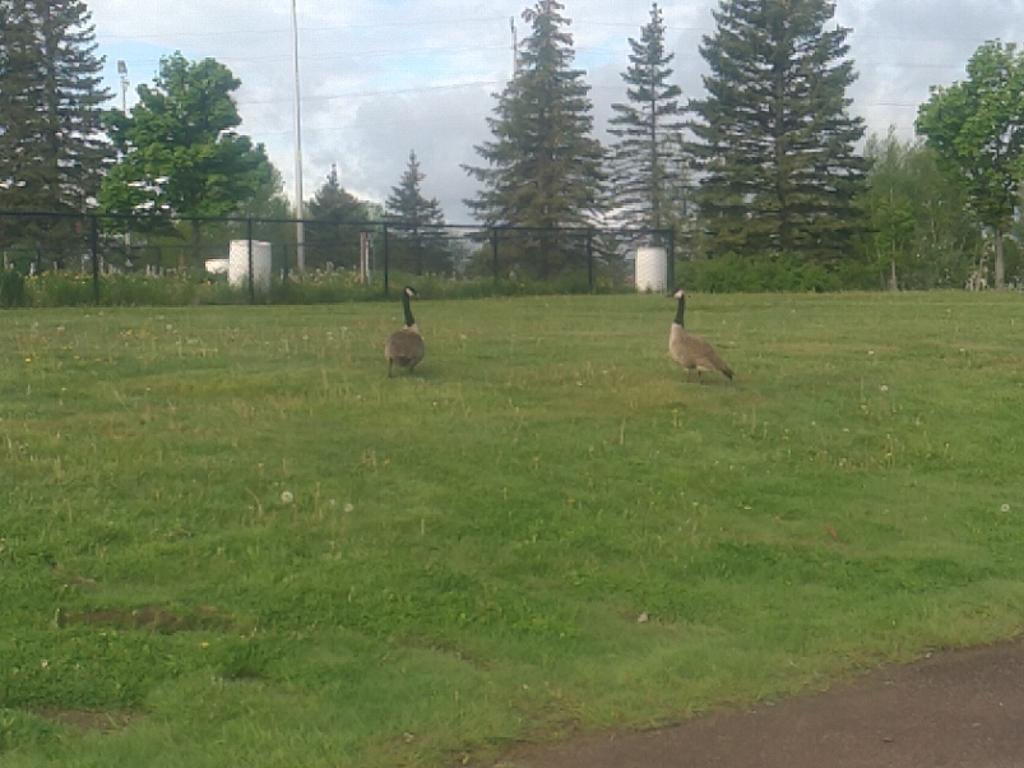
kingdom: Animalia
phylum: Chordata
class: Aves
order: Anseriformes
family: Anatidae
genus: Branta
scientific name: Branta canadensis
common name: Canada goose
